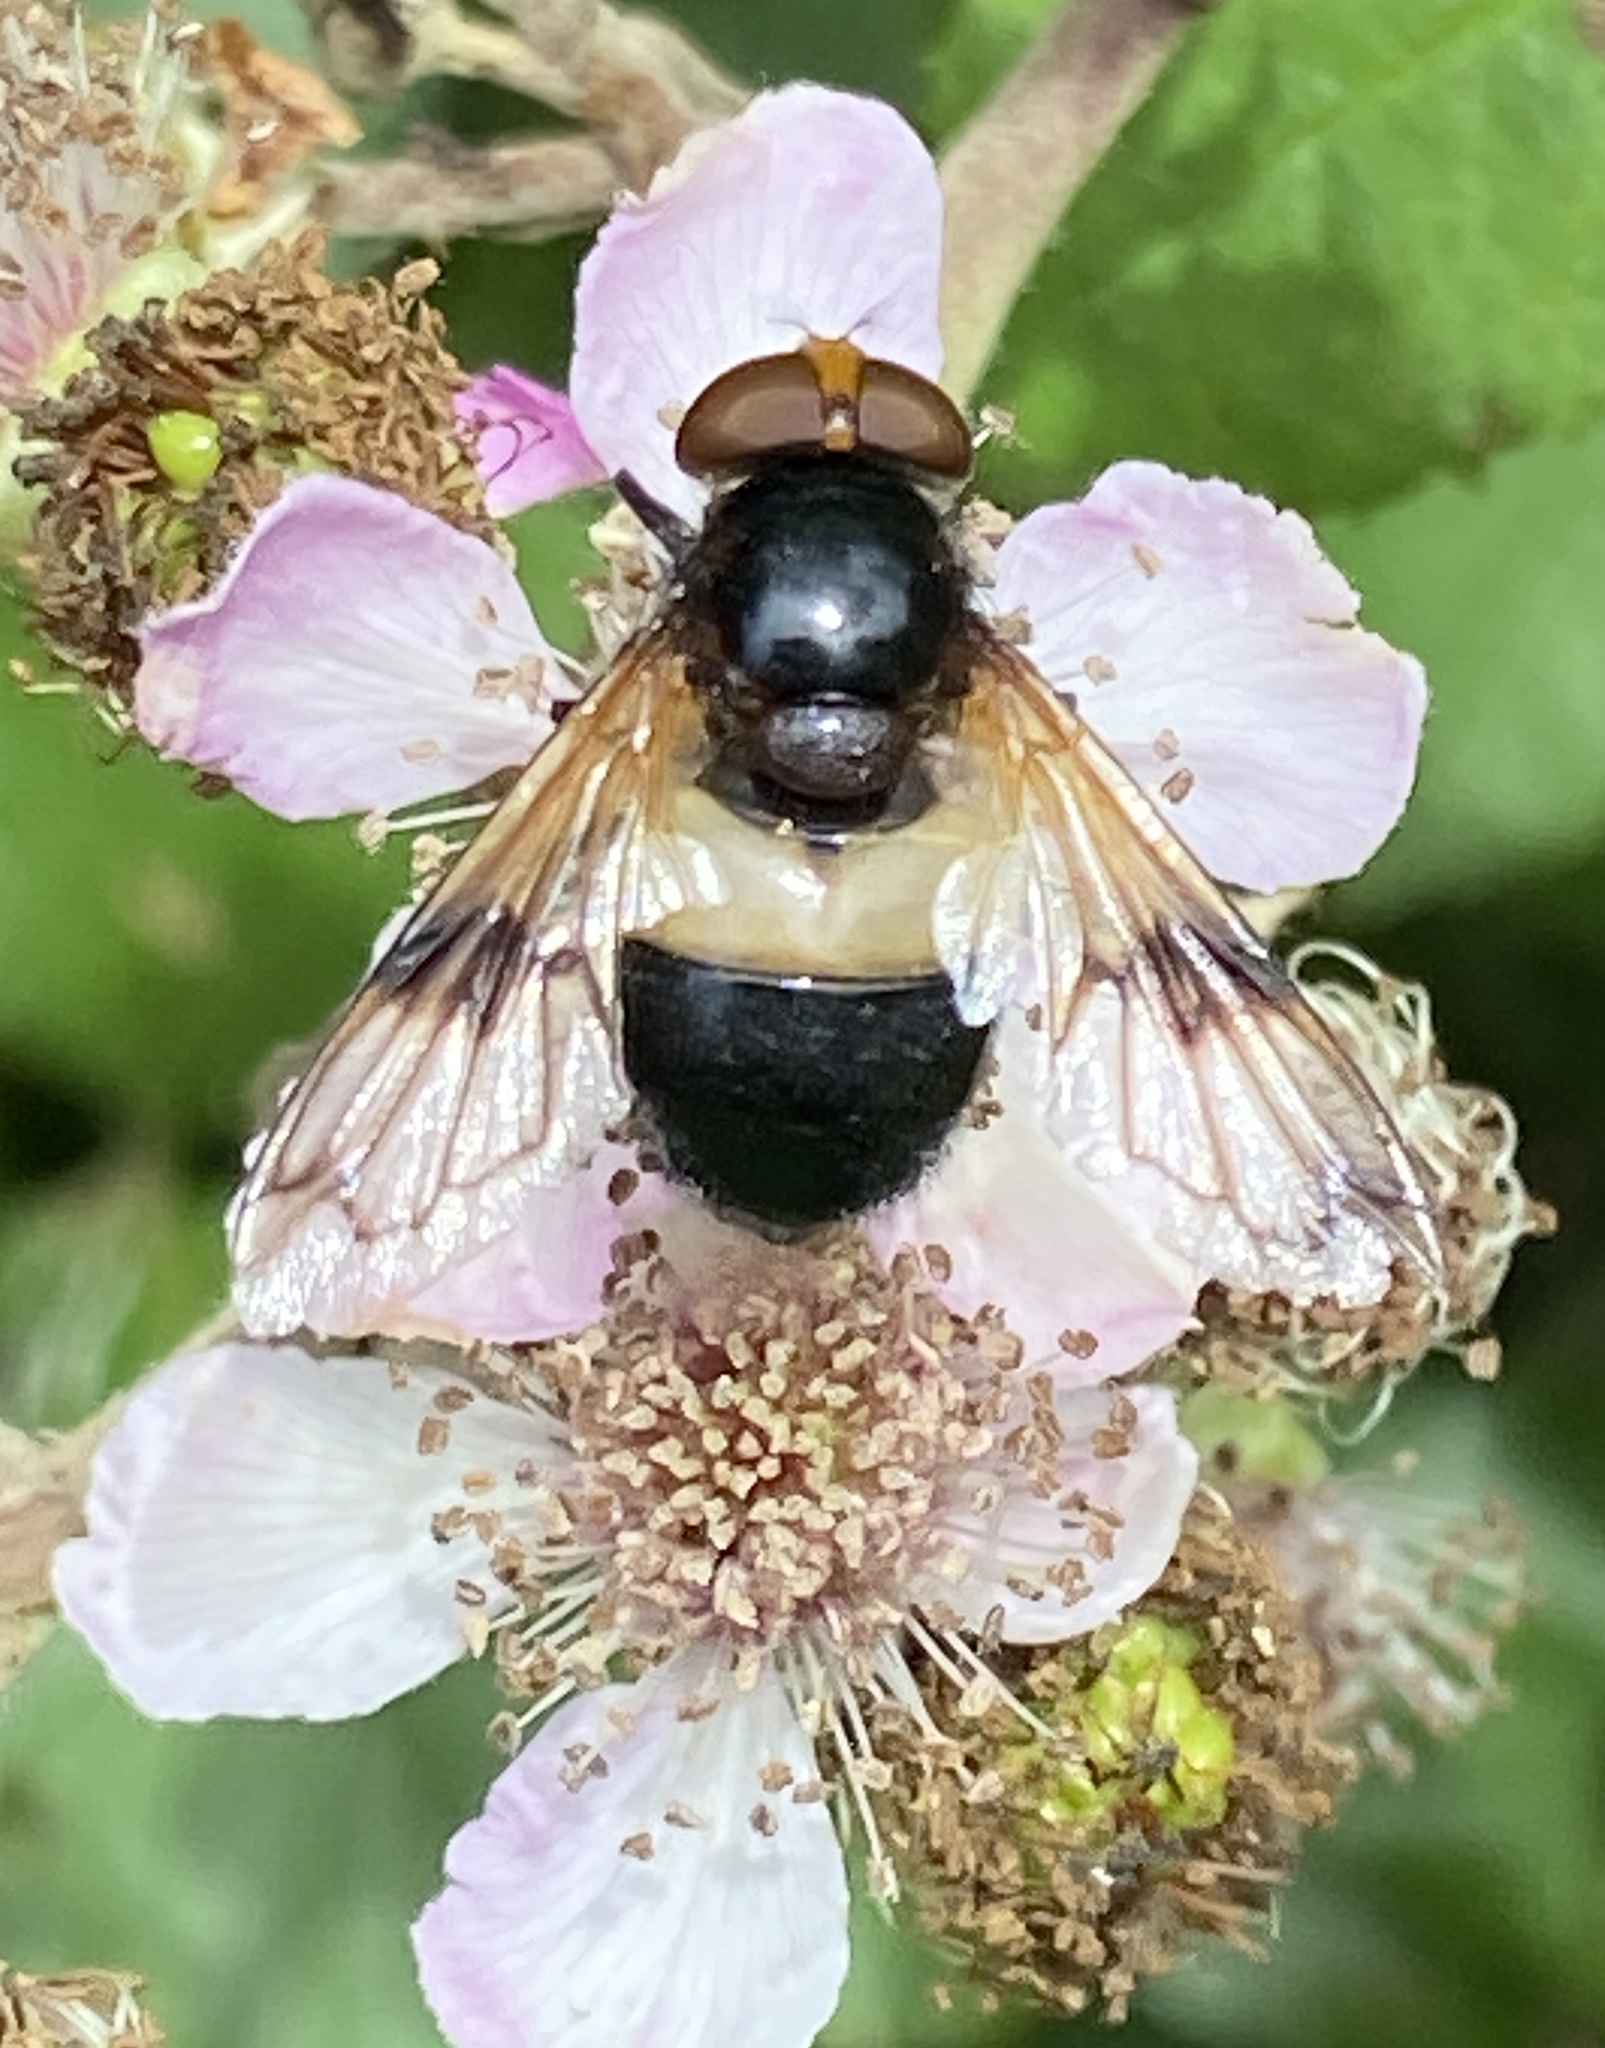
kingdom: Animalia
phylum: Arthropoda
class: Insecta
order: Diptera
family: Syrphidae
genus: Volucella
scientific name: Volucella pellucens
